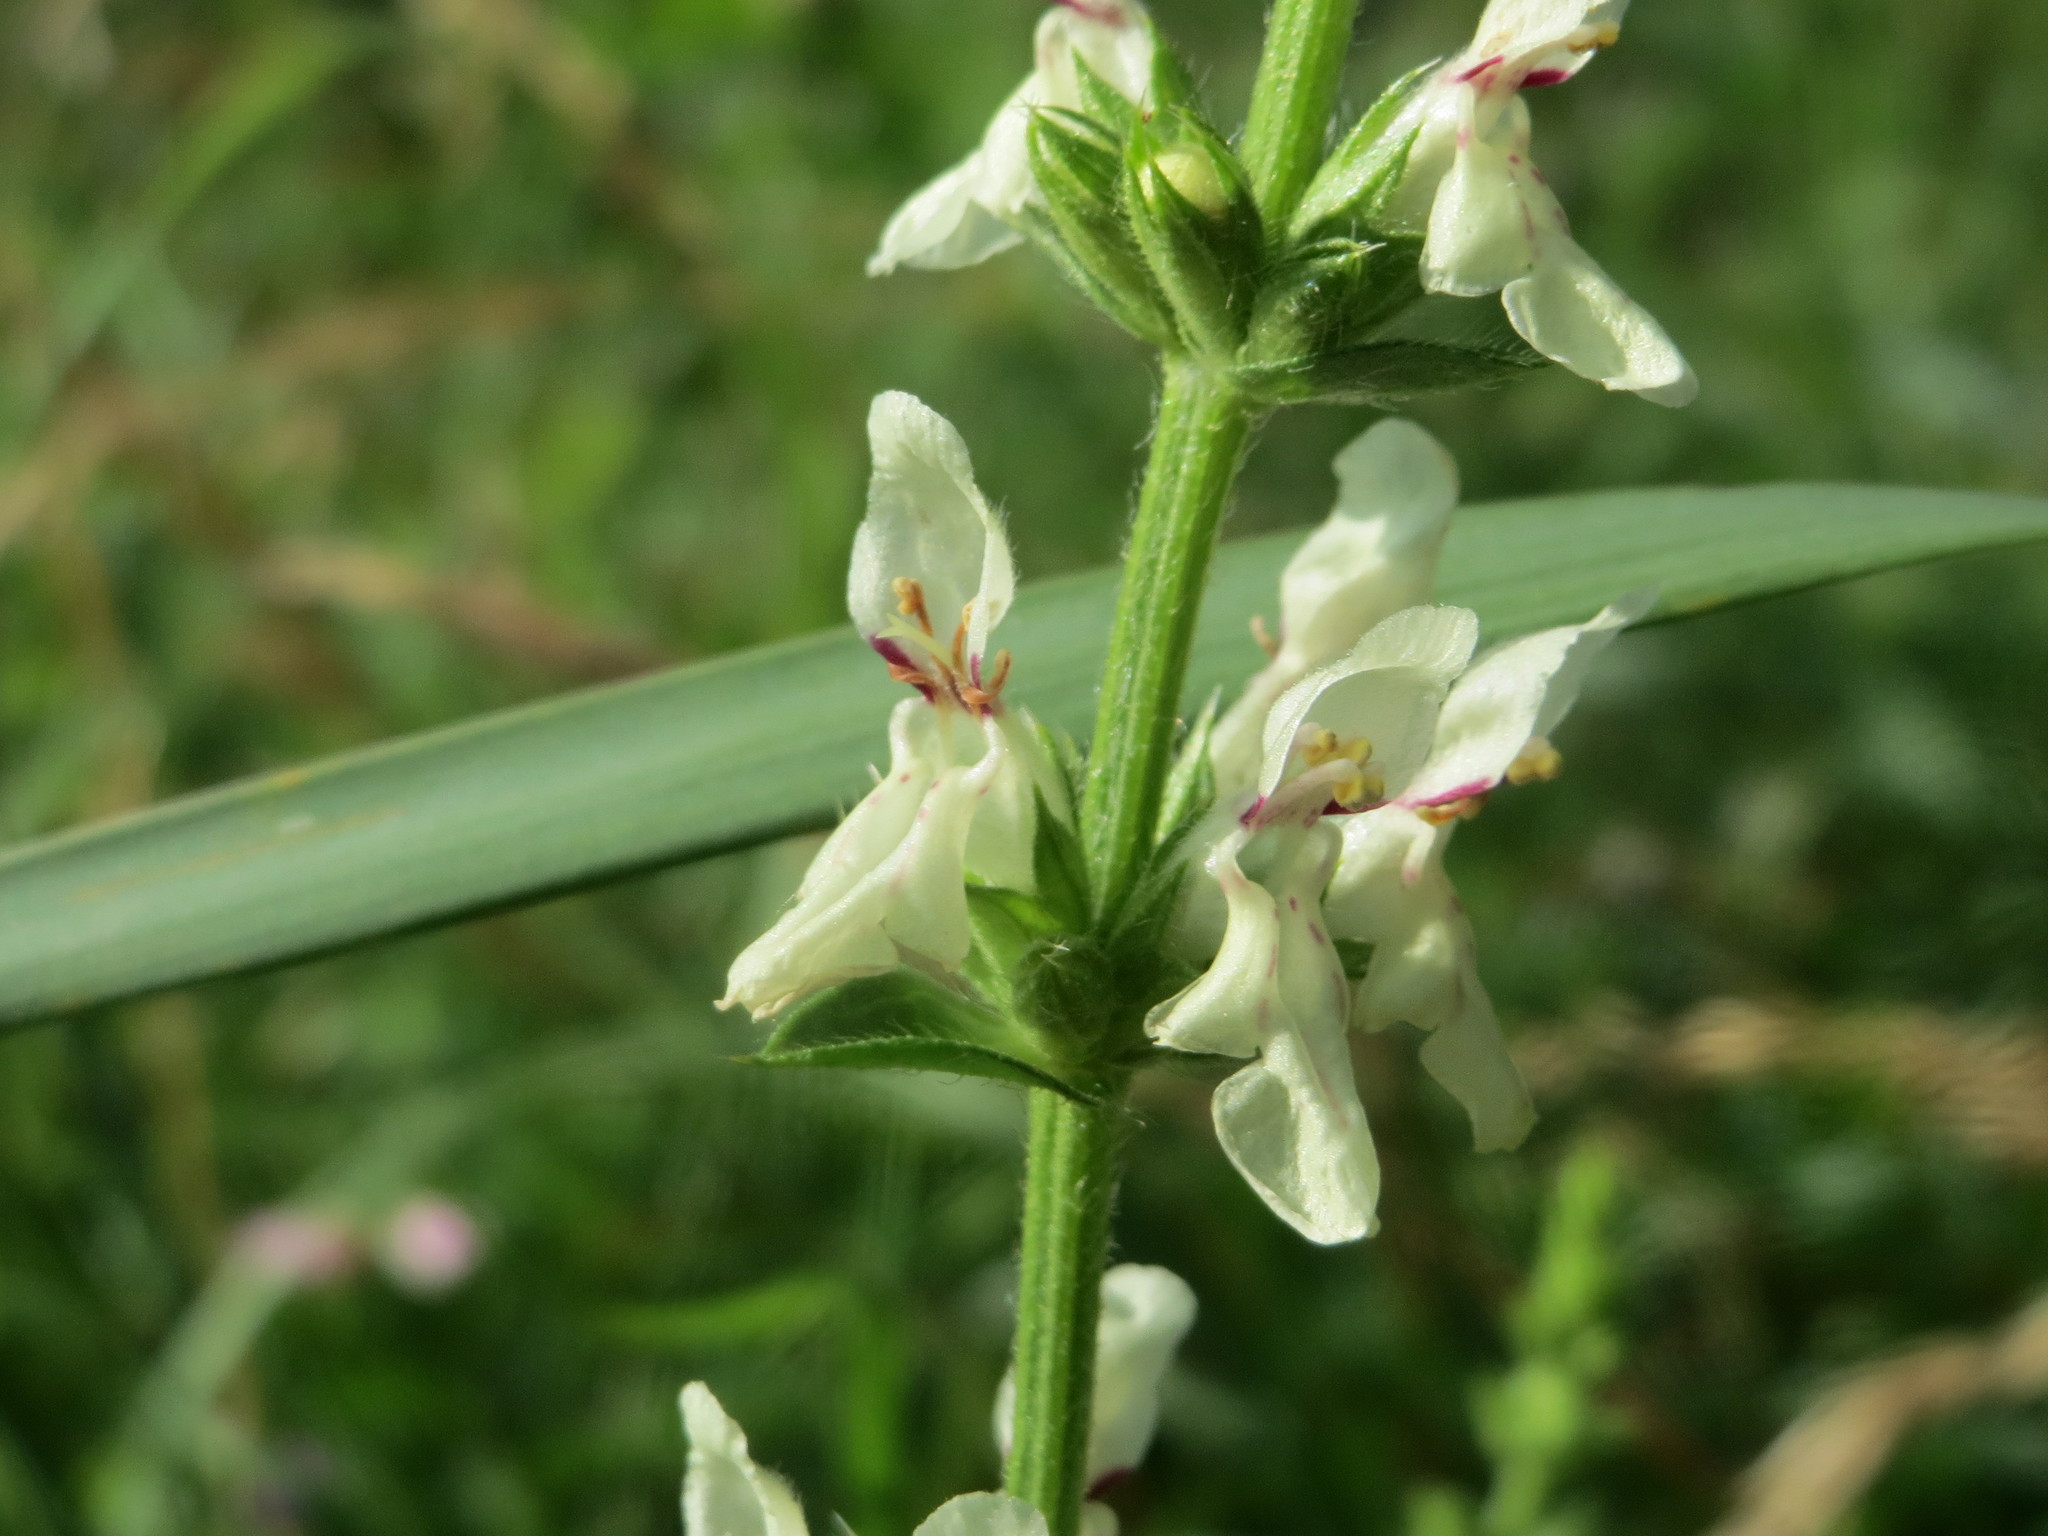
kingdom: Plantae
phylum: Tracheophyta
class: Magnoliopsida
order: Lamiales
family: Lamiaceae
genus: Stachys
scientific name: Stachys recta
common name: Perennial yellow-woundwort
